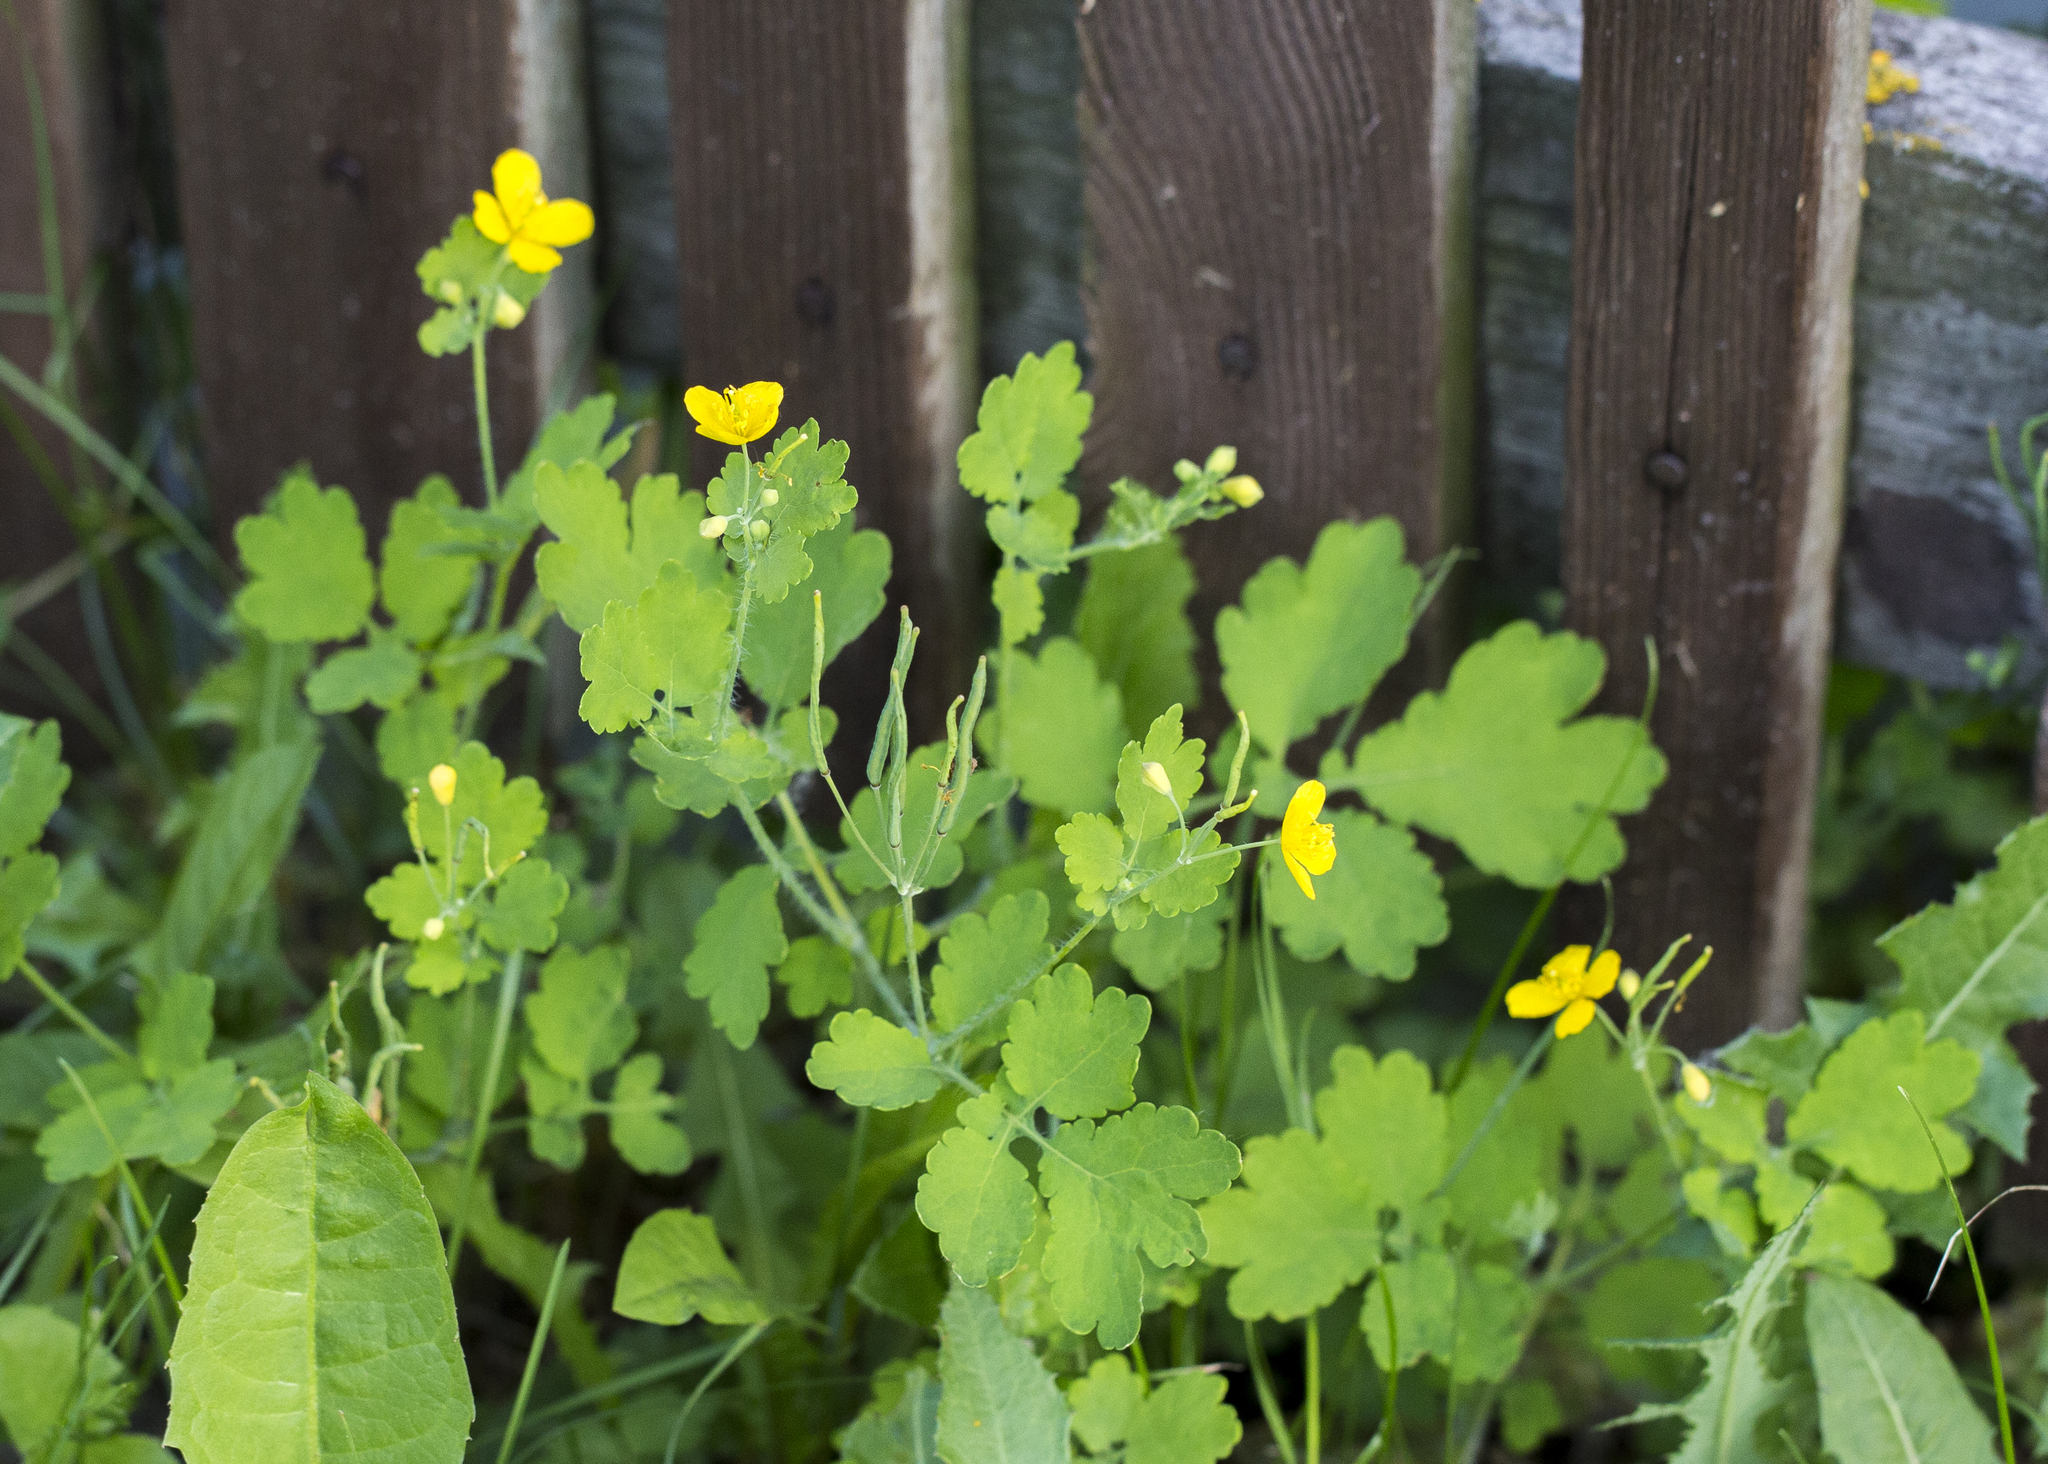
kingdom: Plantae
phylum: Tracheophyta
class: Magnoliopsida
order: Ranunculales
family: Papaveraceae
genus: Chelidonium
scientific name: Chelidonium majus
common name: Greater celandine
